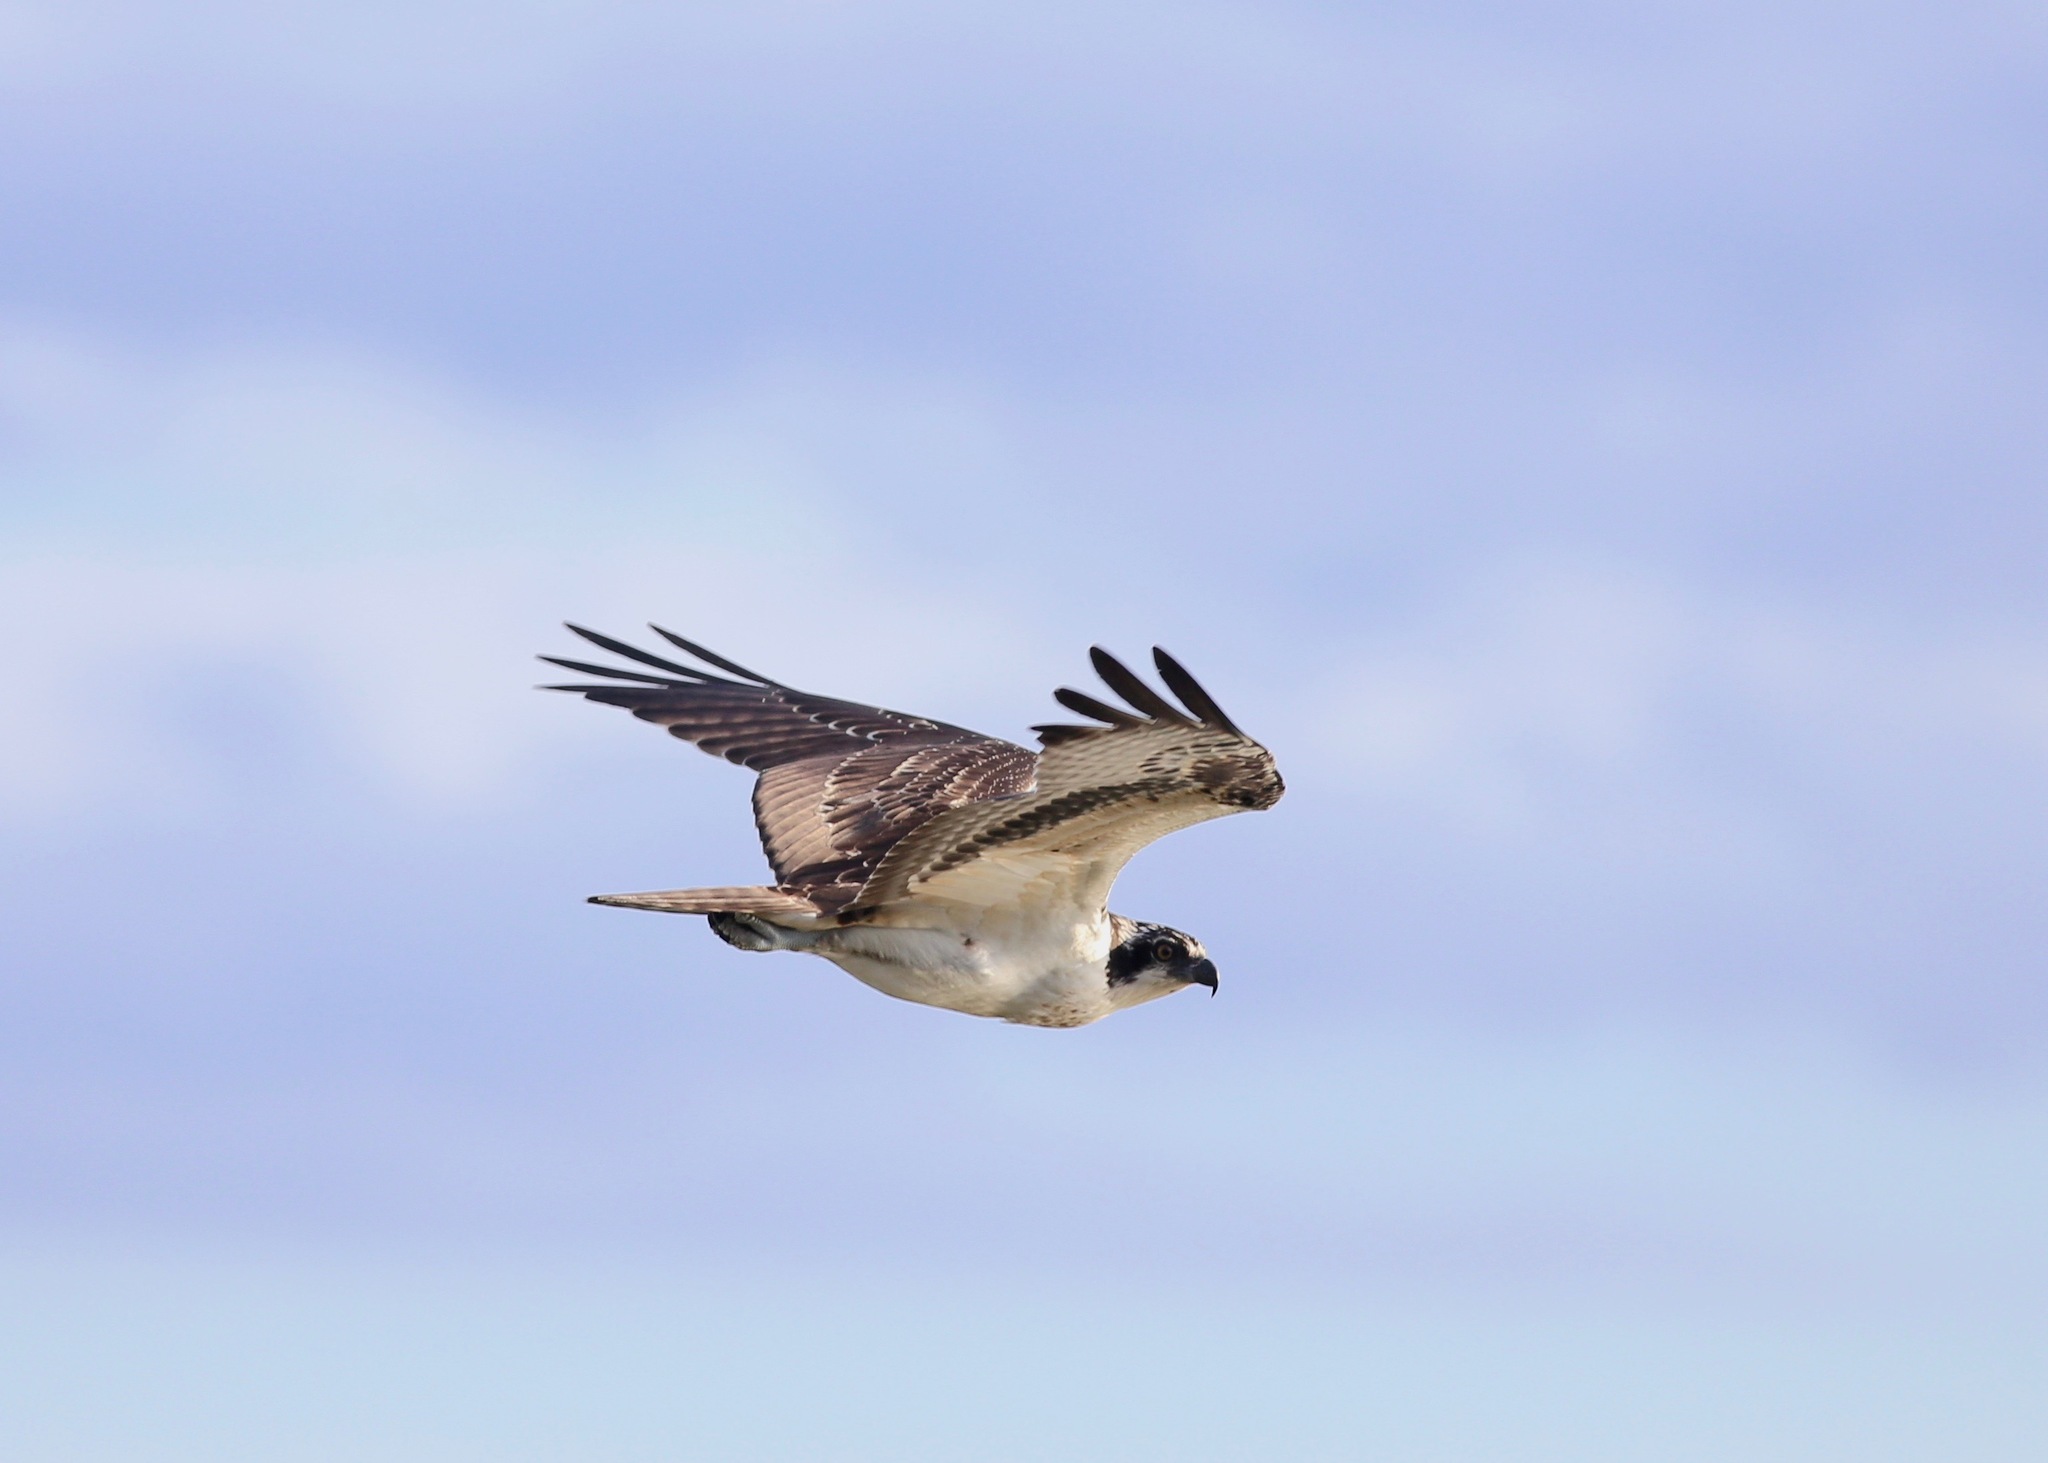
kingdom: Animalia
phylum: Chordata
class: Aves
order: Accipitriformes
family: Pandionidae
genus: Pandion
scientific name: Pandion haliaetus
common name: Osprey
